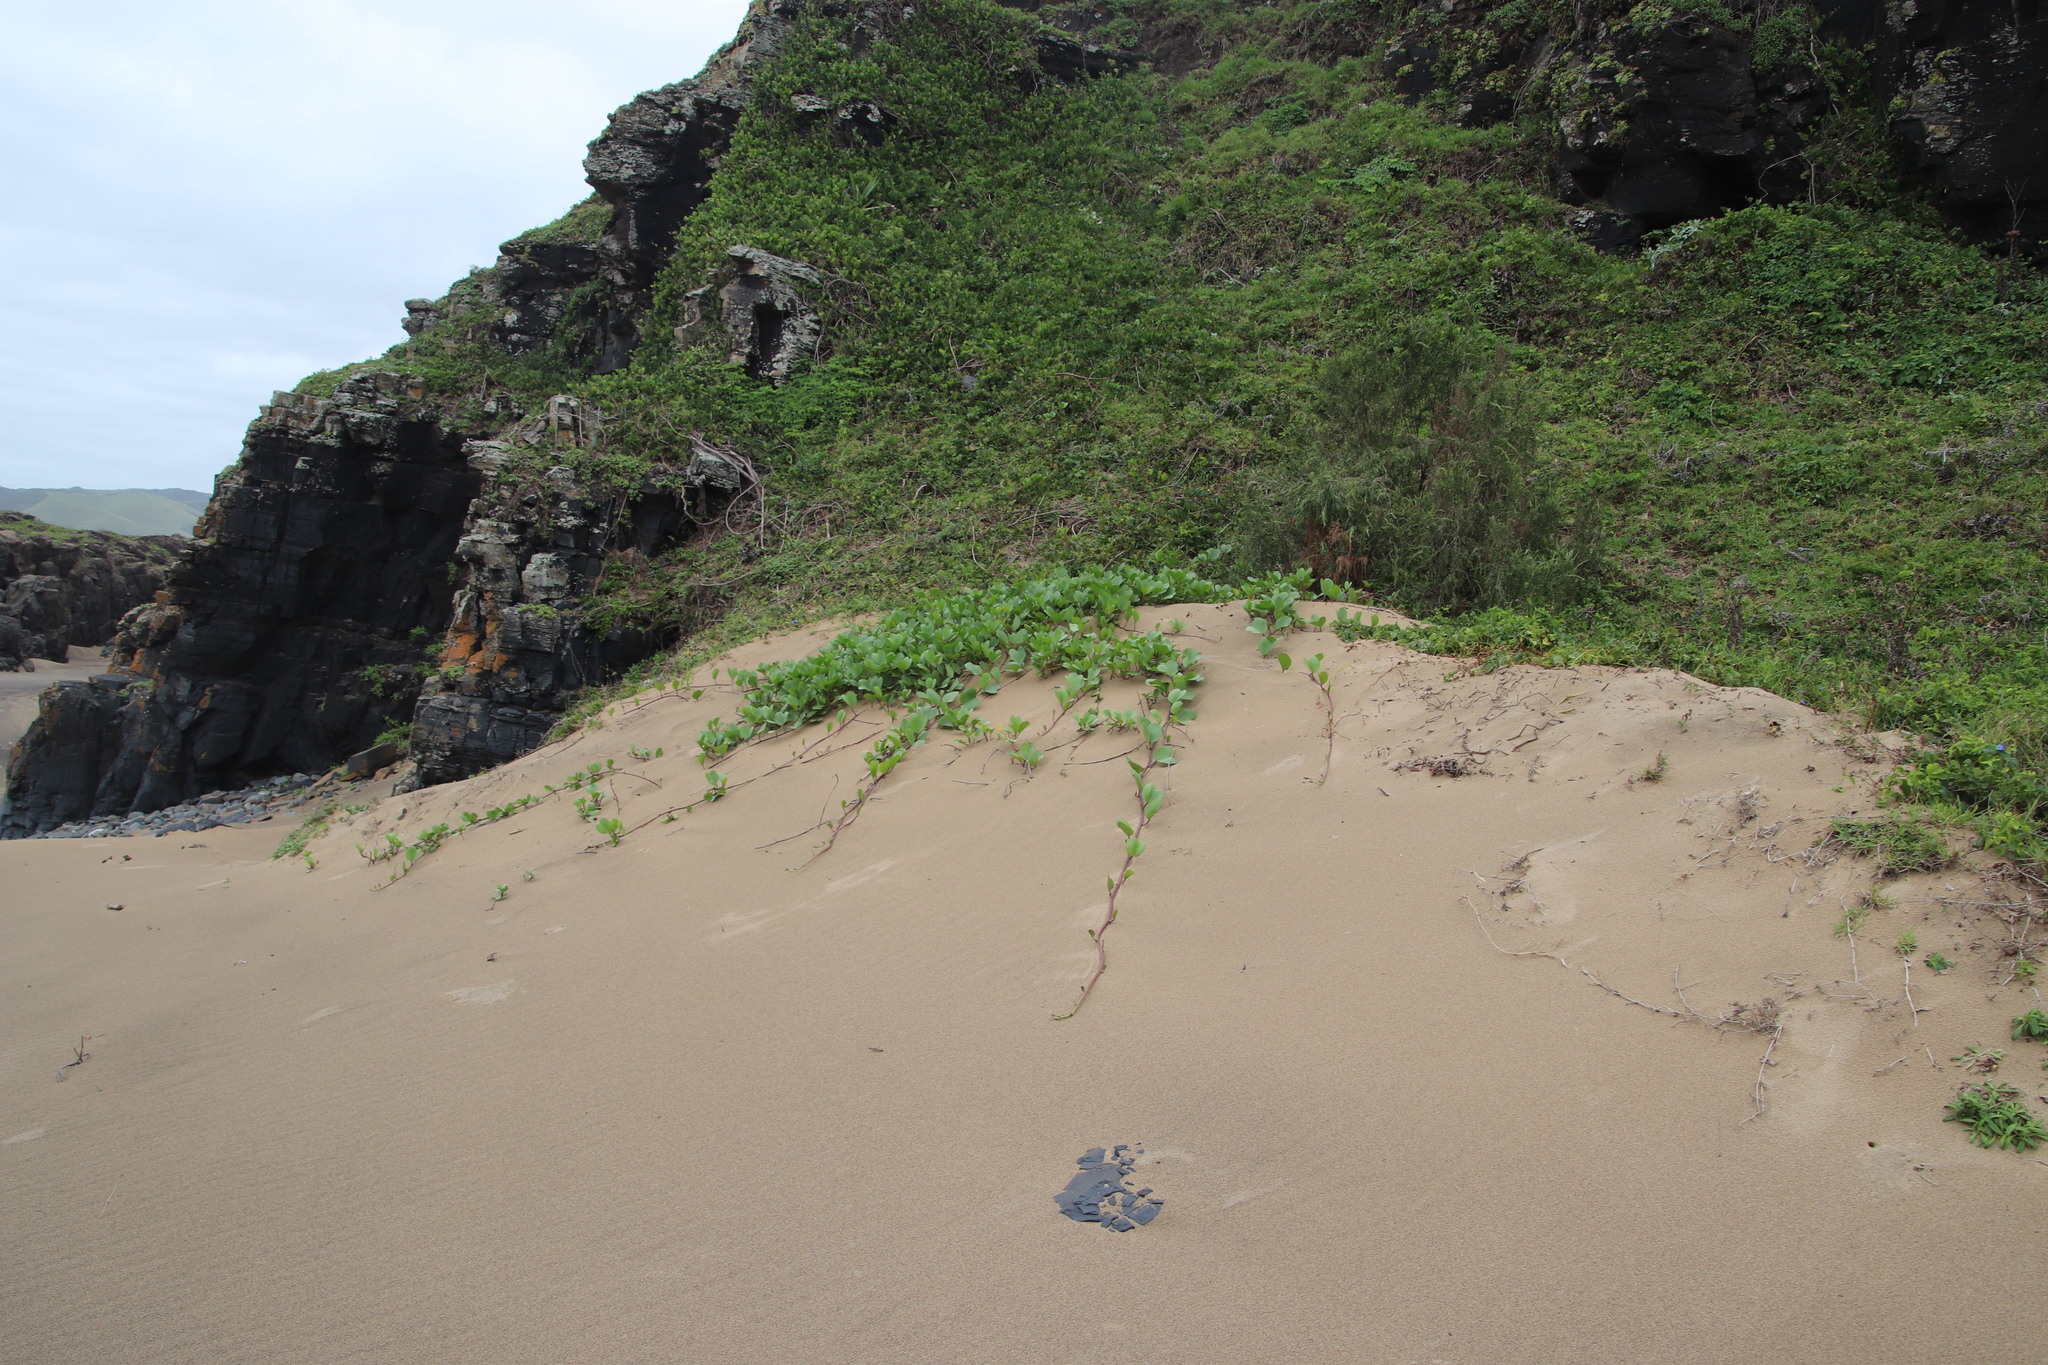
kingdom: Plantae
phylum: Tracheophyta
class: Magnoliopsida
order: Solanales
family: Convolvulaceae
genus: Ipomoea
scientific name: Ipomoea pes-caprae
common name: Beach morning glory
